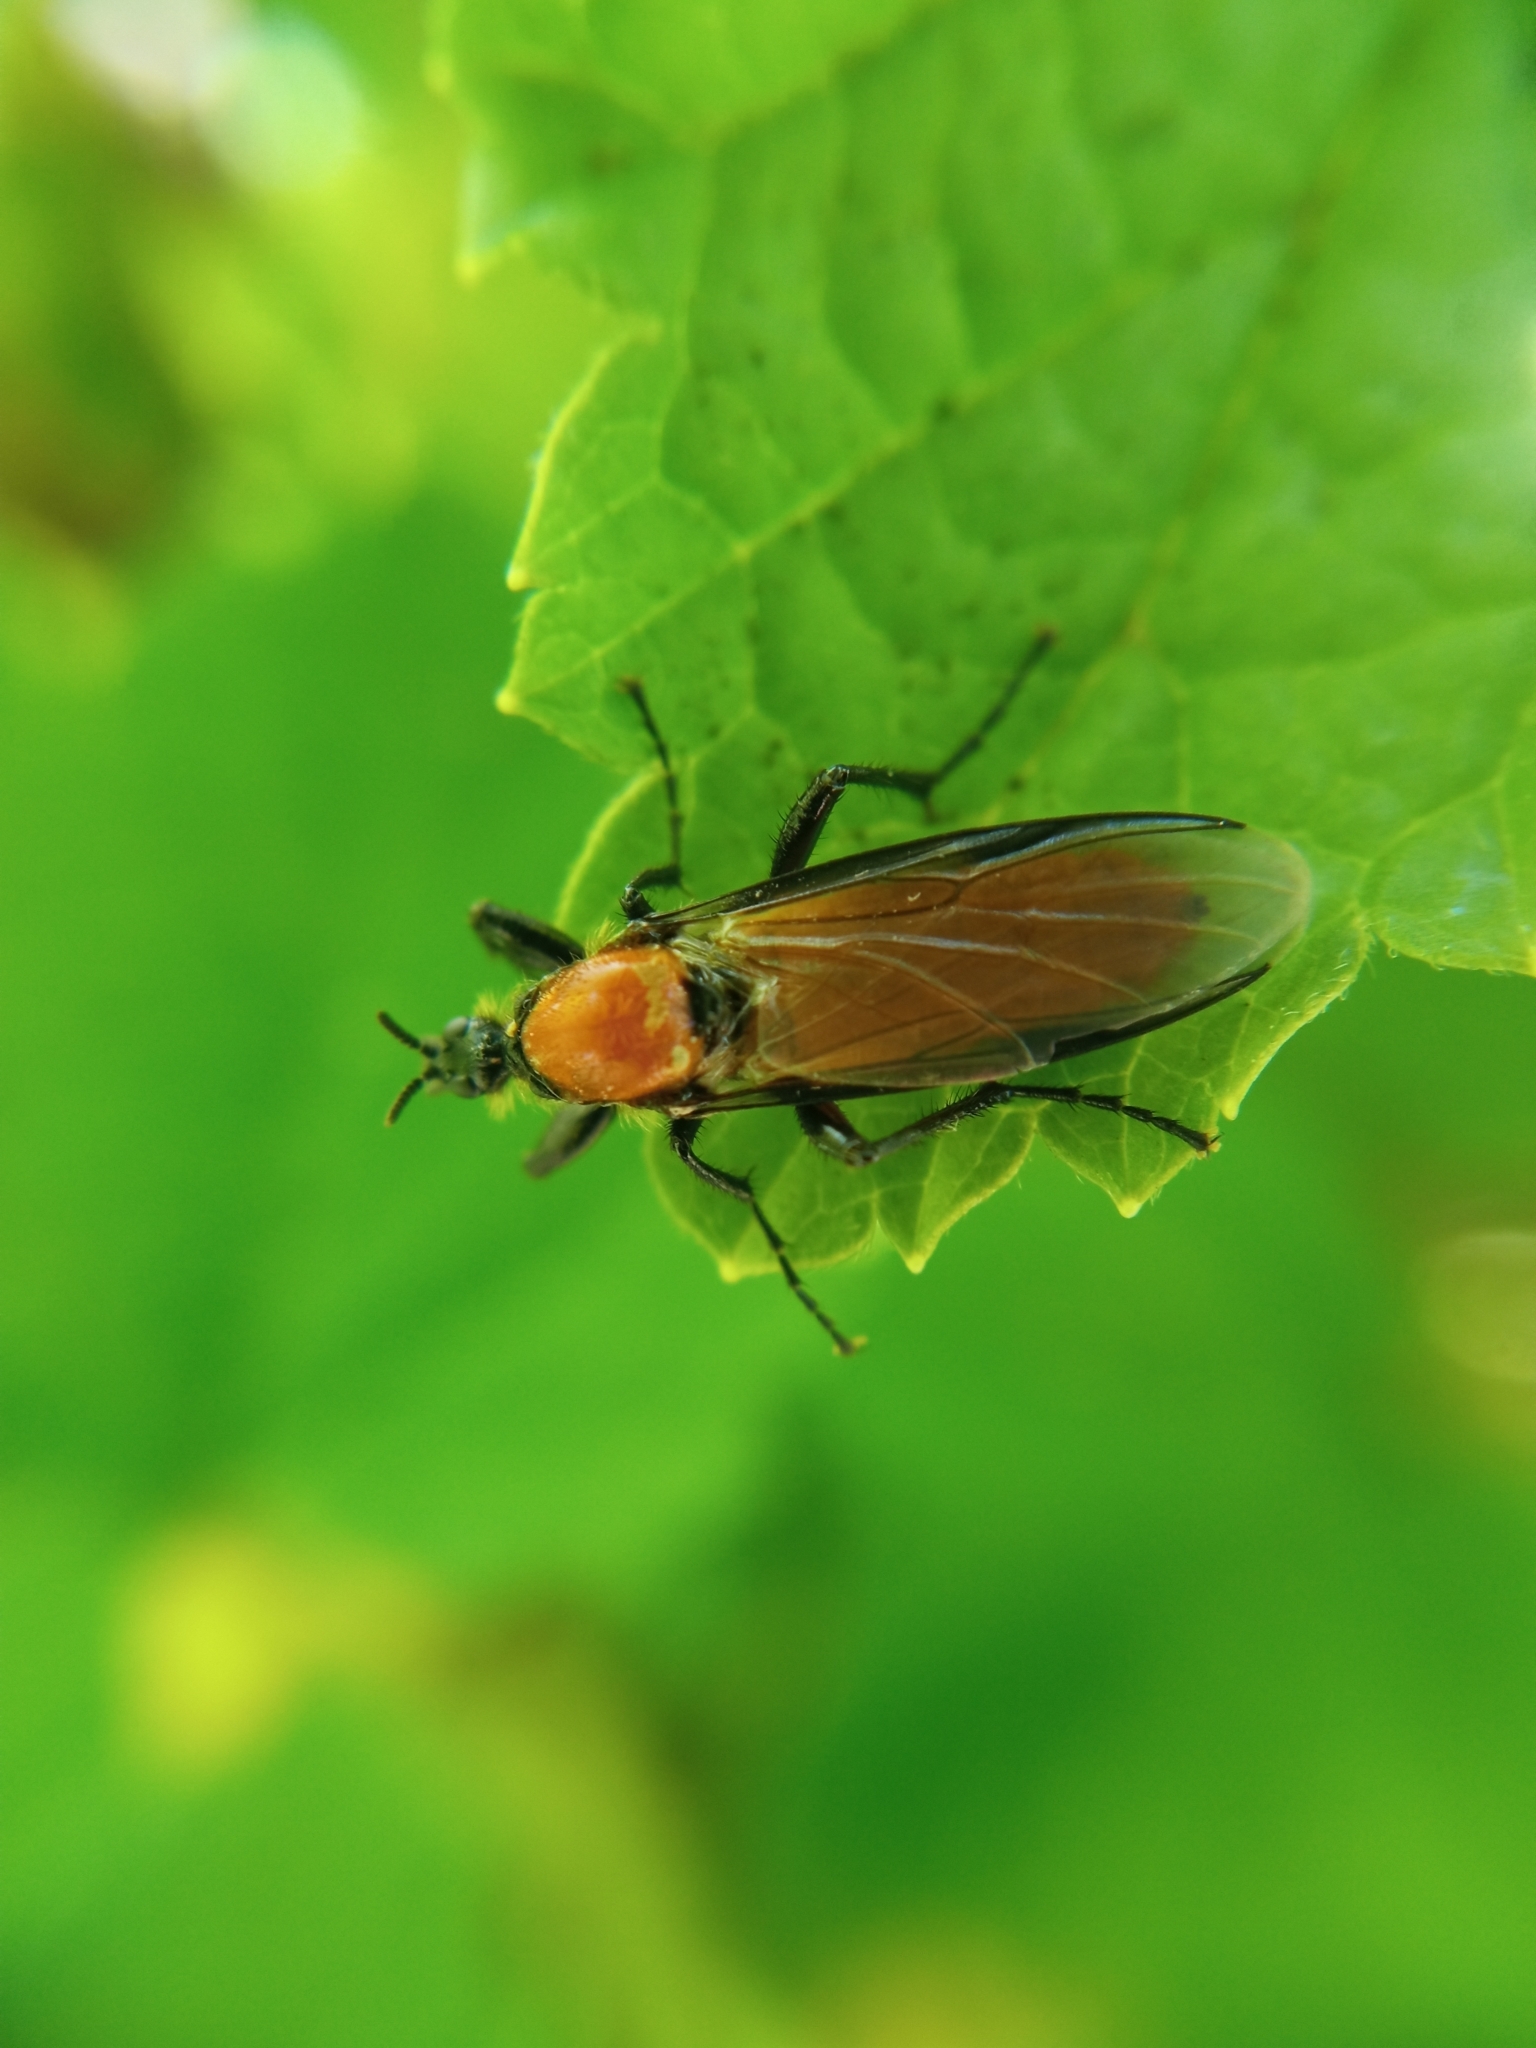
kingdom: Animalia
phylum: Arthropoda
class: Insecta
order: Diptera
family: Bibionidae
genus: Bibio
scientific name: Bibio hortulanus
